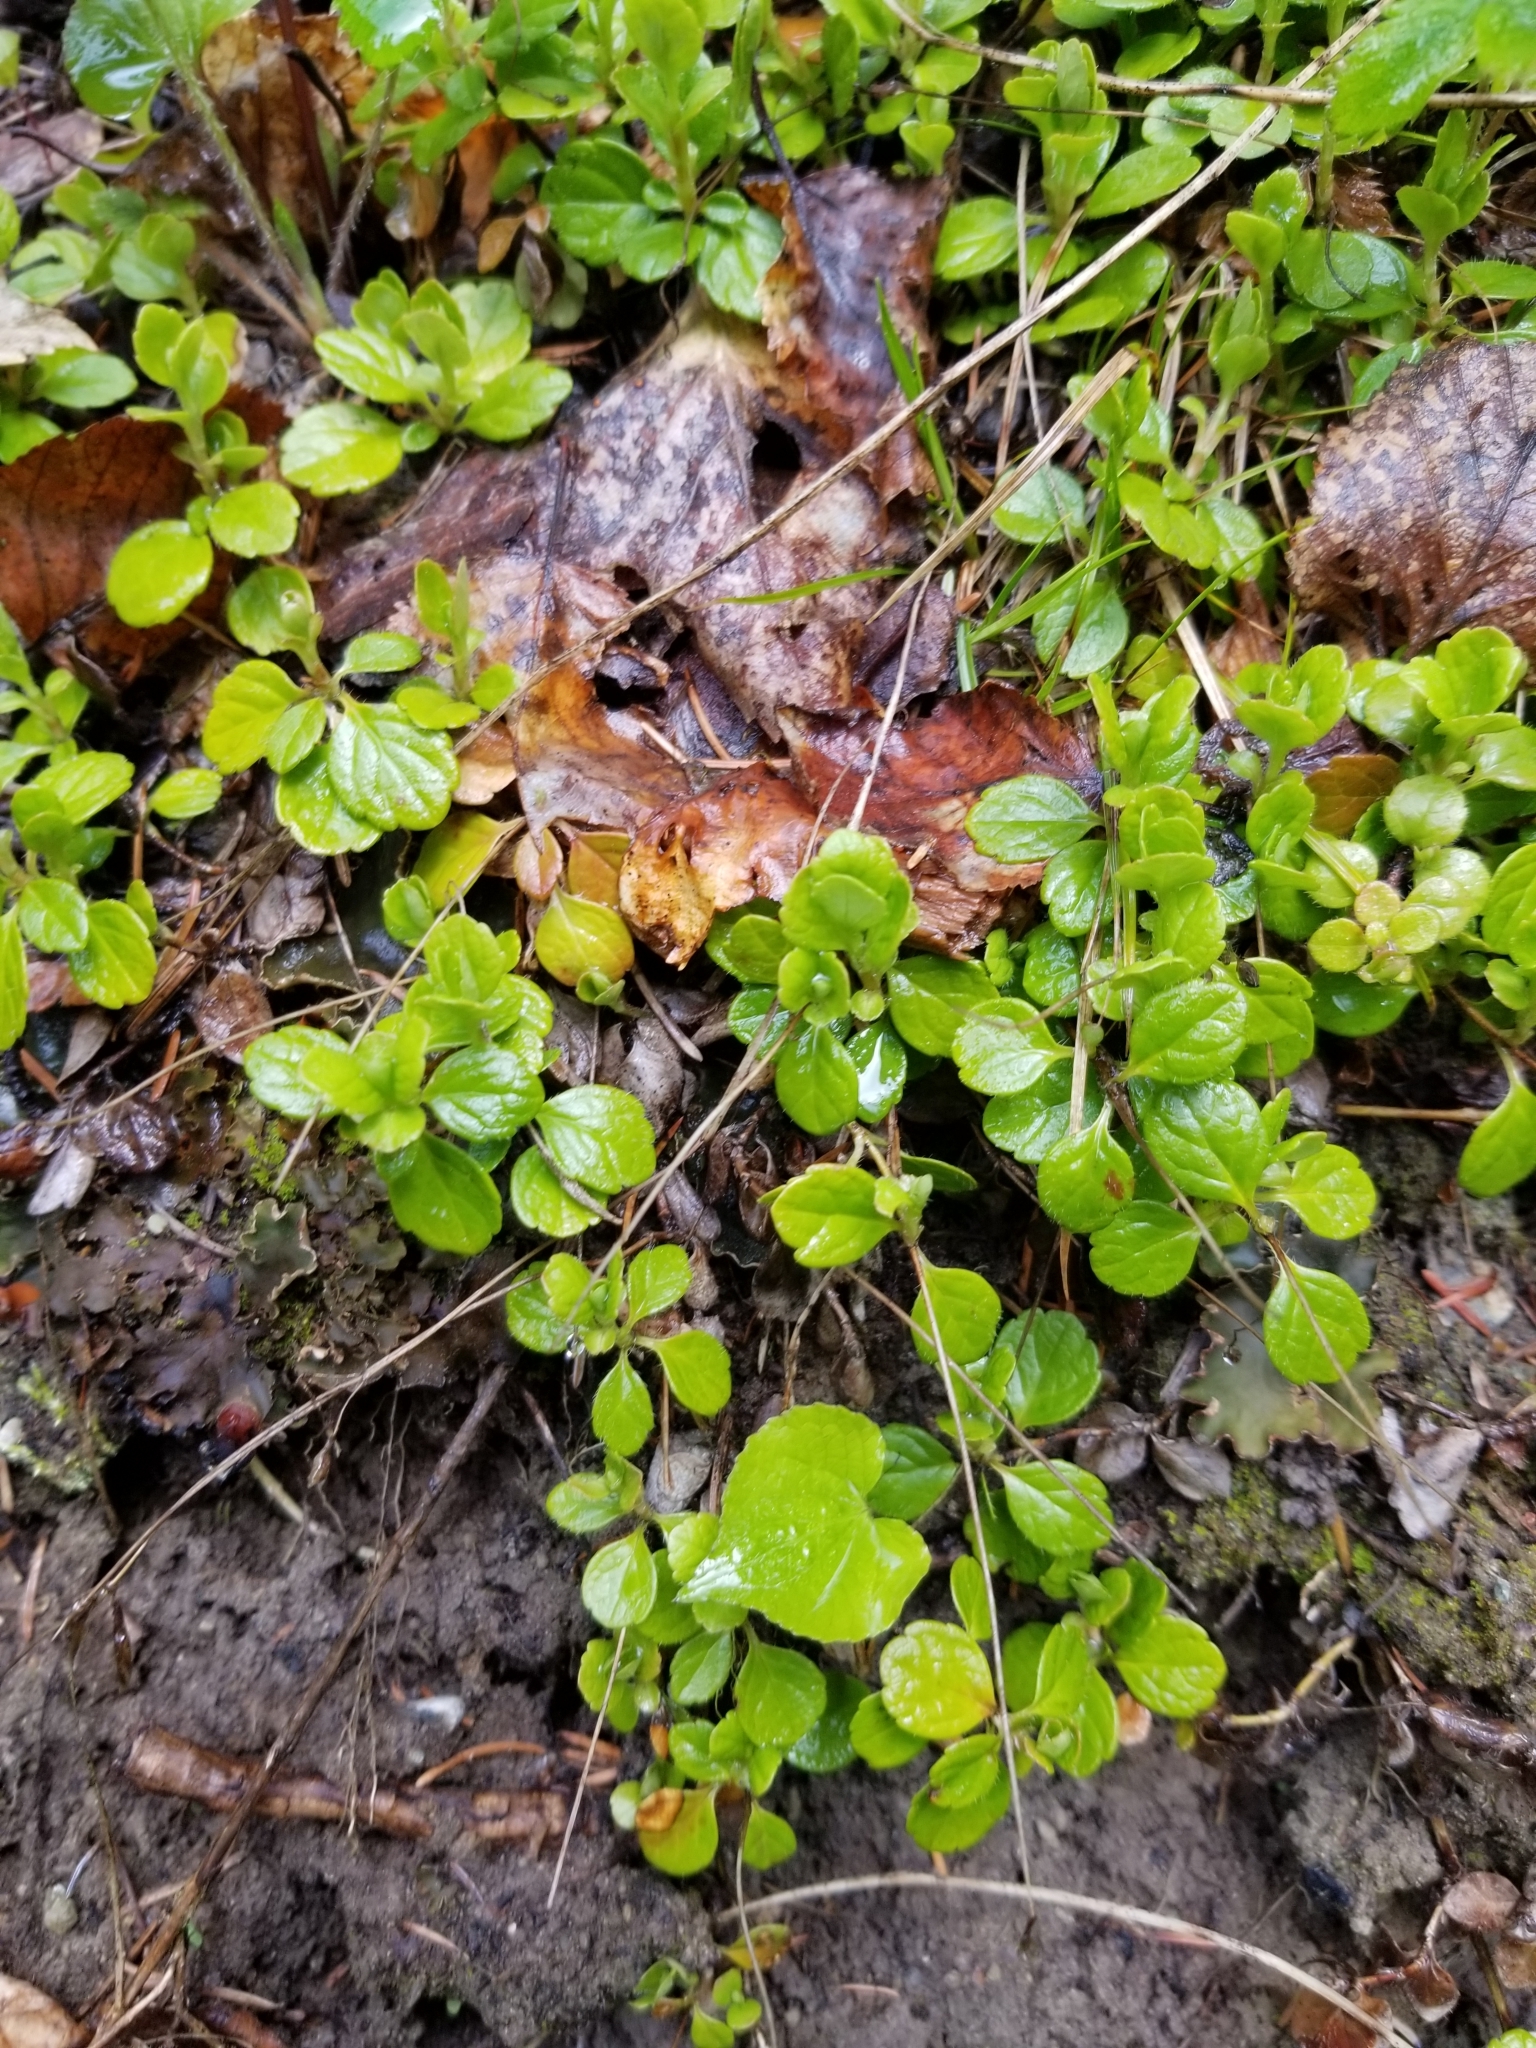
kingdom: Plantae
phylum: Tracheophyta
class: Magnoliopsida
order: Dipsacales
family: Caprifoliaceae
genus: Linnaea
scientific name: Linnaea borealis
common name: Twinflower
